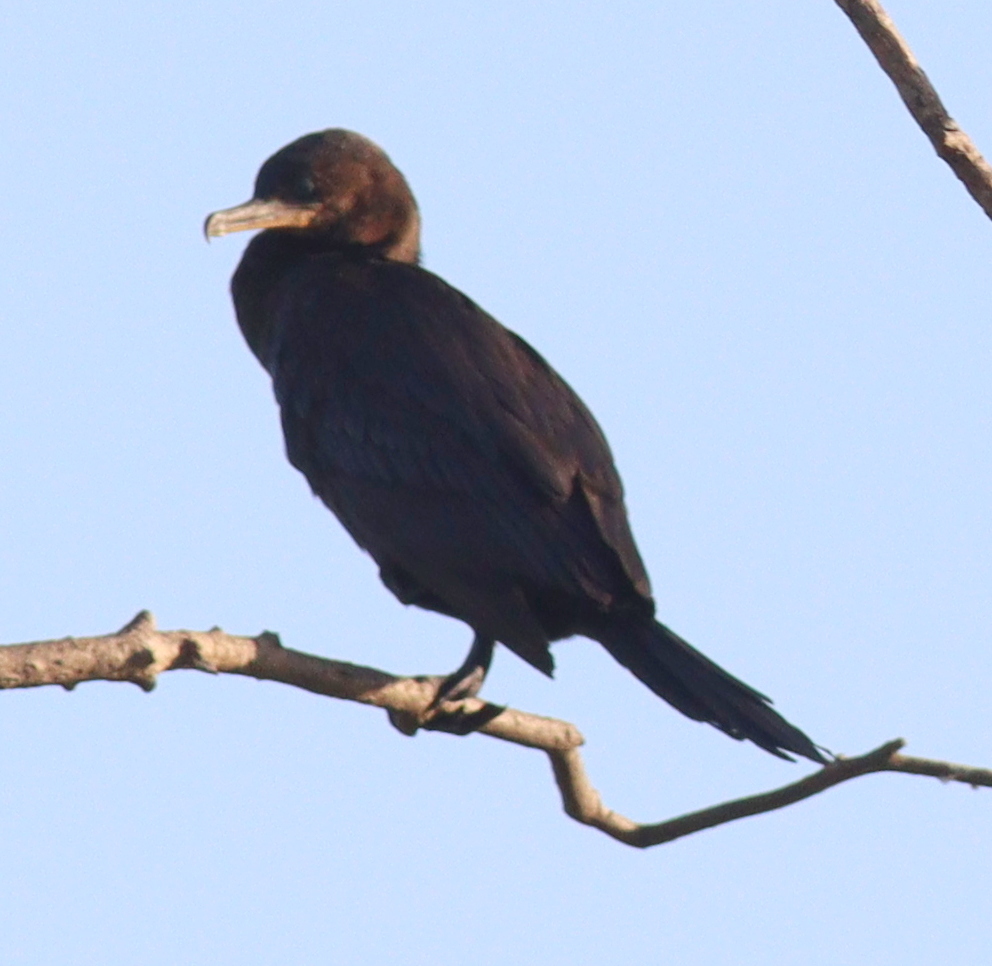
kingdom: Animalia
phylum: Chordata
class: Aves
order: Suliformes
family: Phalacrocoracidae
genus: Phalacrocorax
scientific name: Phalacrocorax brasilianus
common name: Neotropic cormorant
